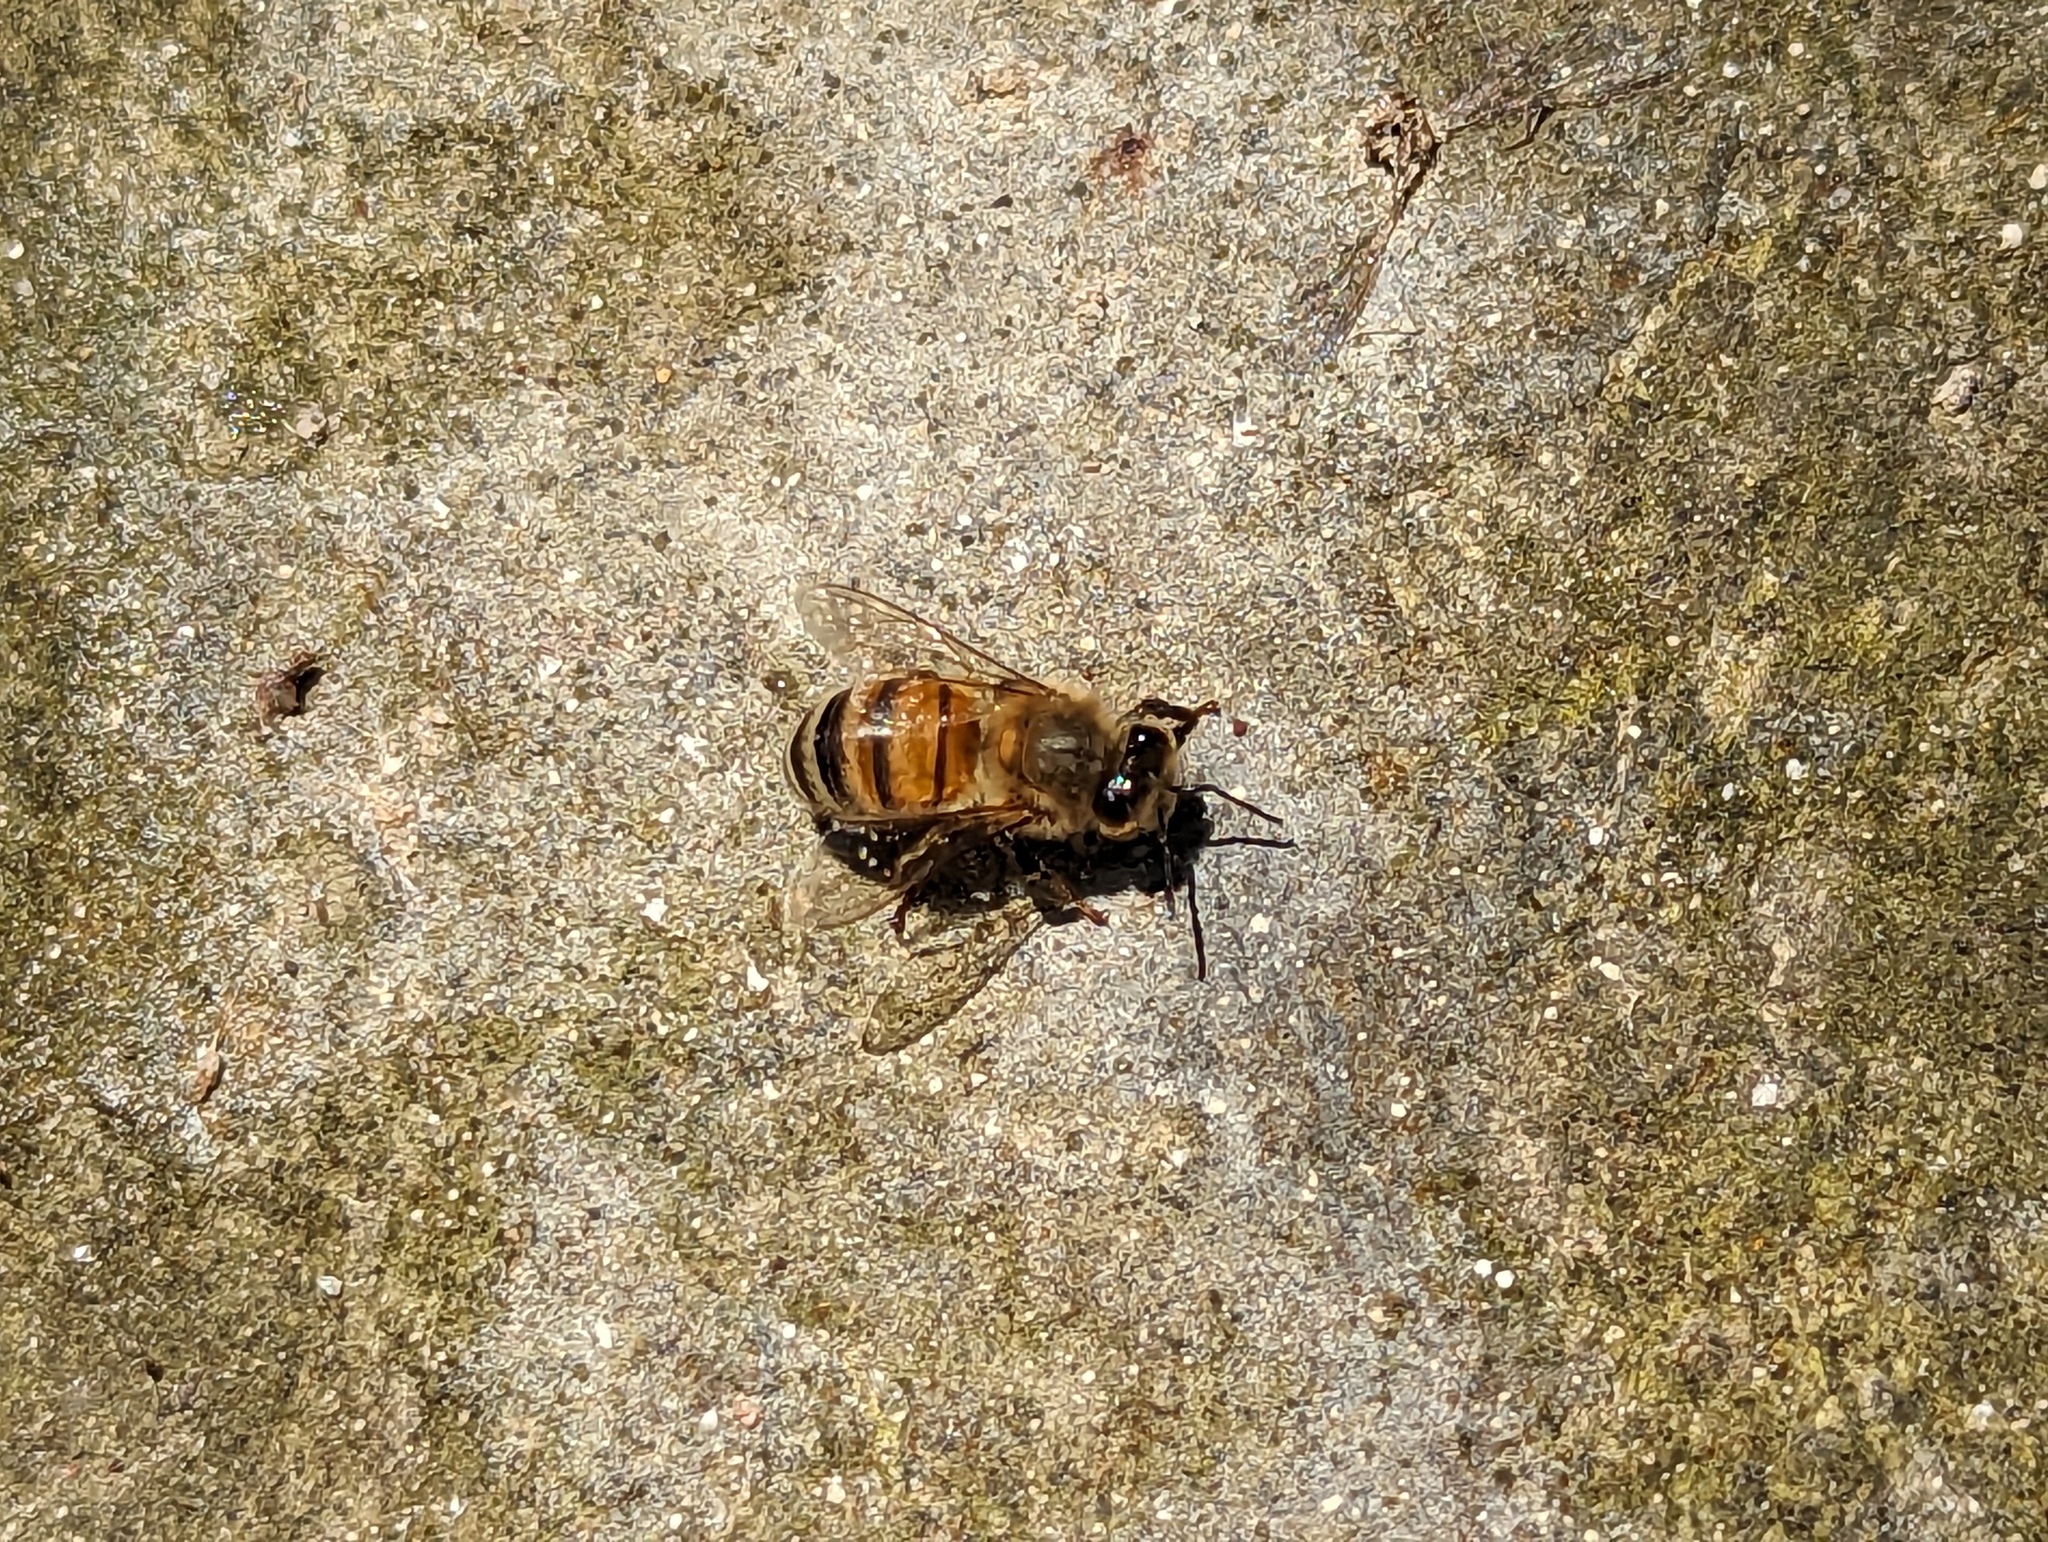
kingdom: Animalia
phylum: Arthropoda
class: Insecta
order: Hymenoptera
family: Apidae
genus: Apis
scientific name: Apis mellifera
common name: Honey bee
